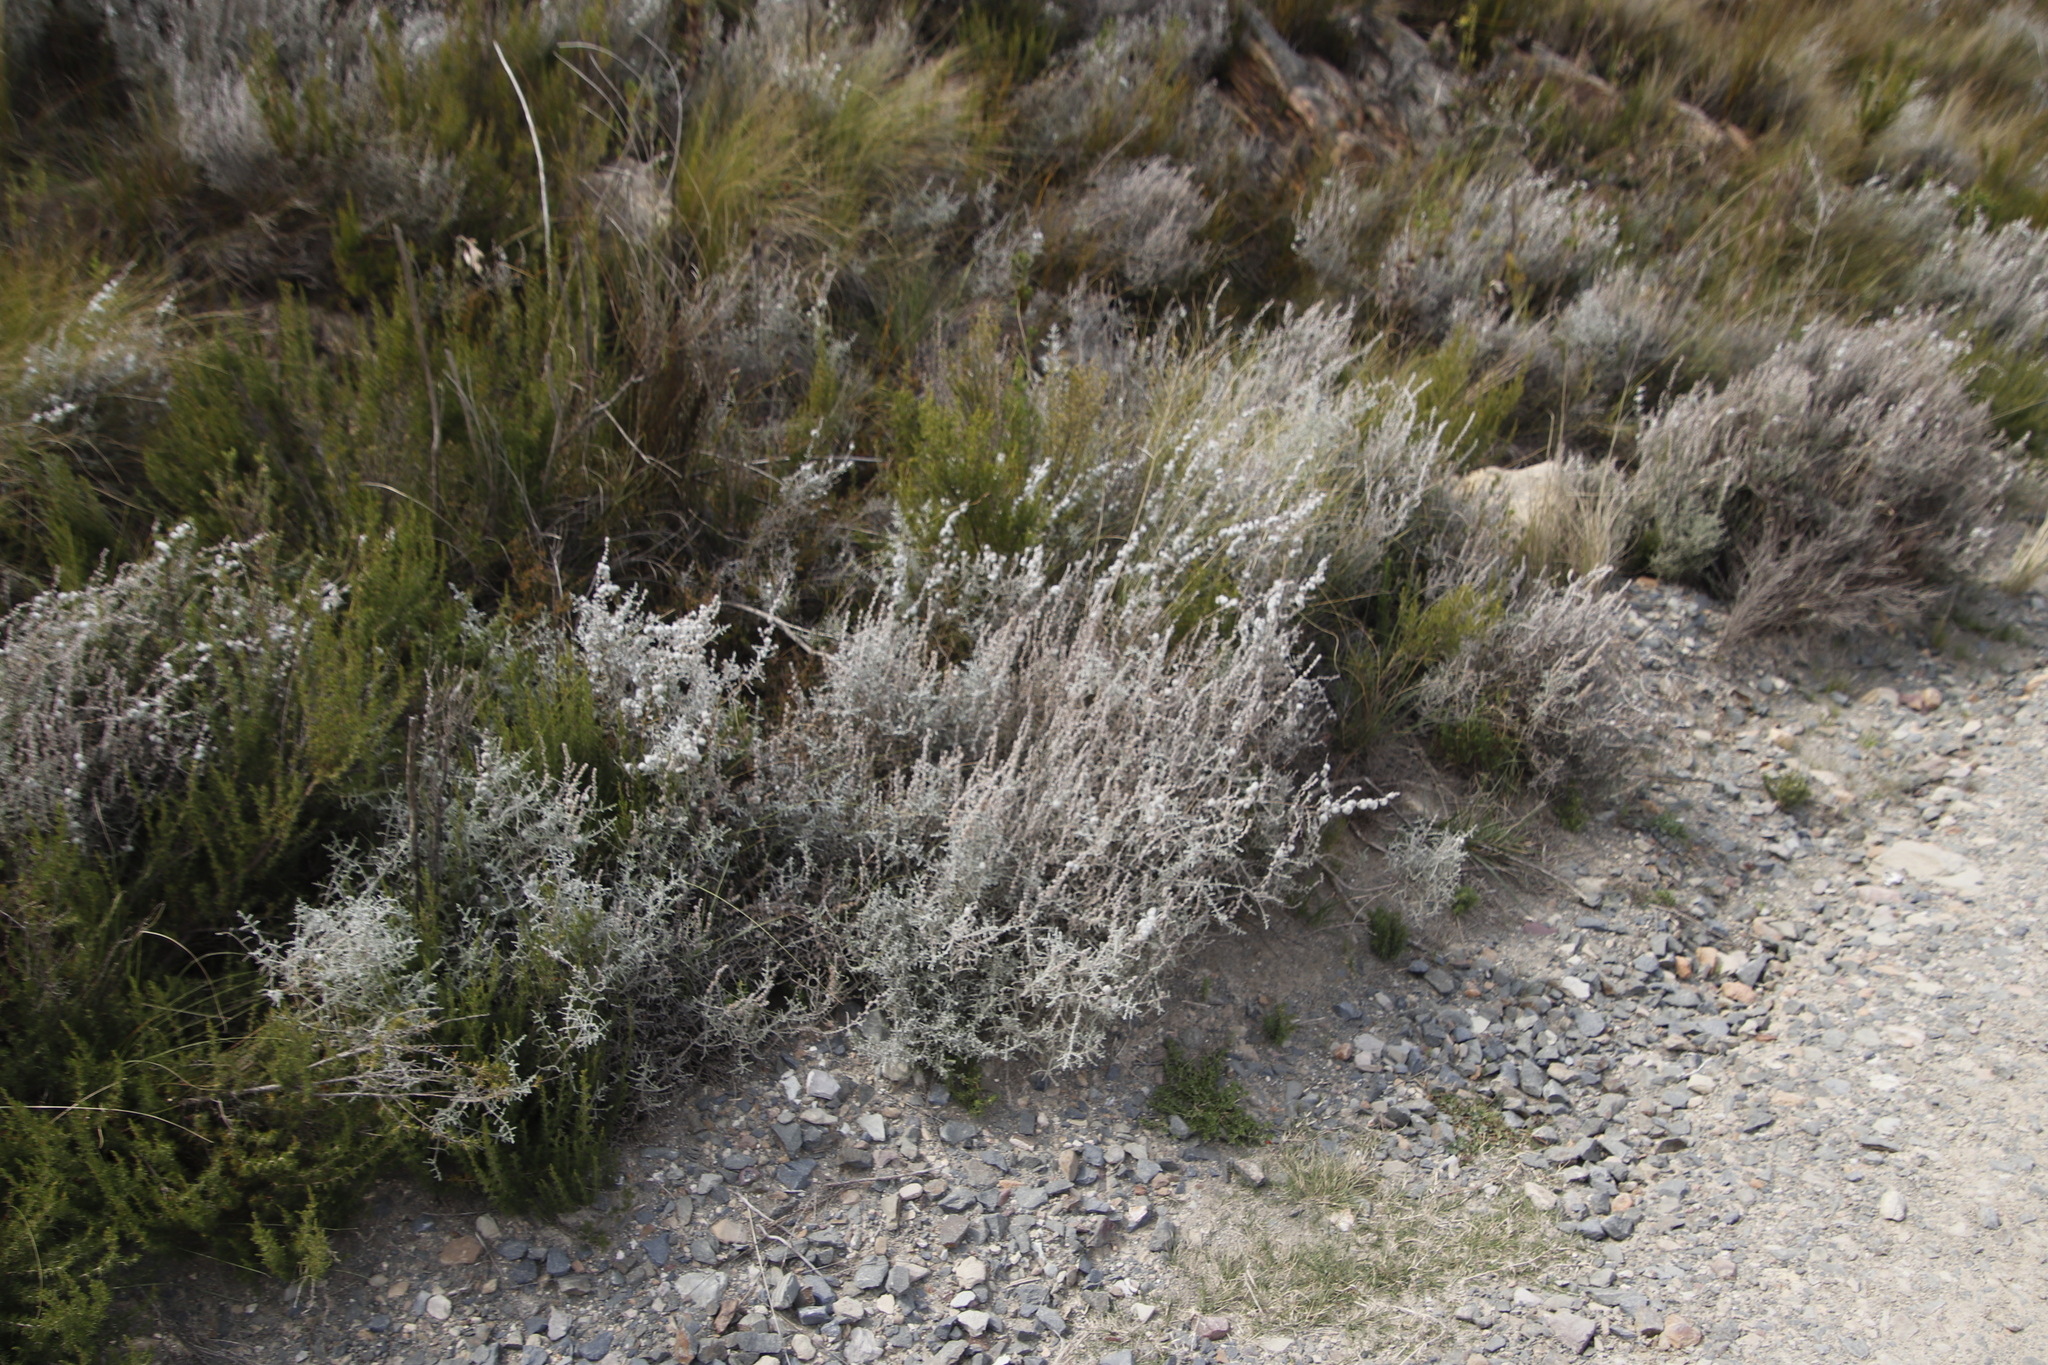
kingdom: Plantae
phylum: Tracheophyta
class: Magnoliopsida
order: Asterales
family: Asteraceae
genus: Seriphium
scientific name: Seriphium plumosum
